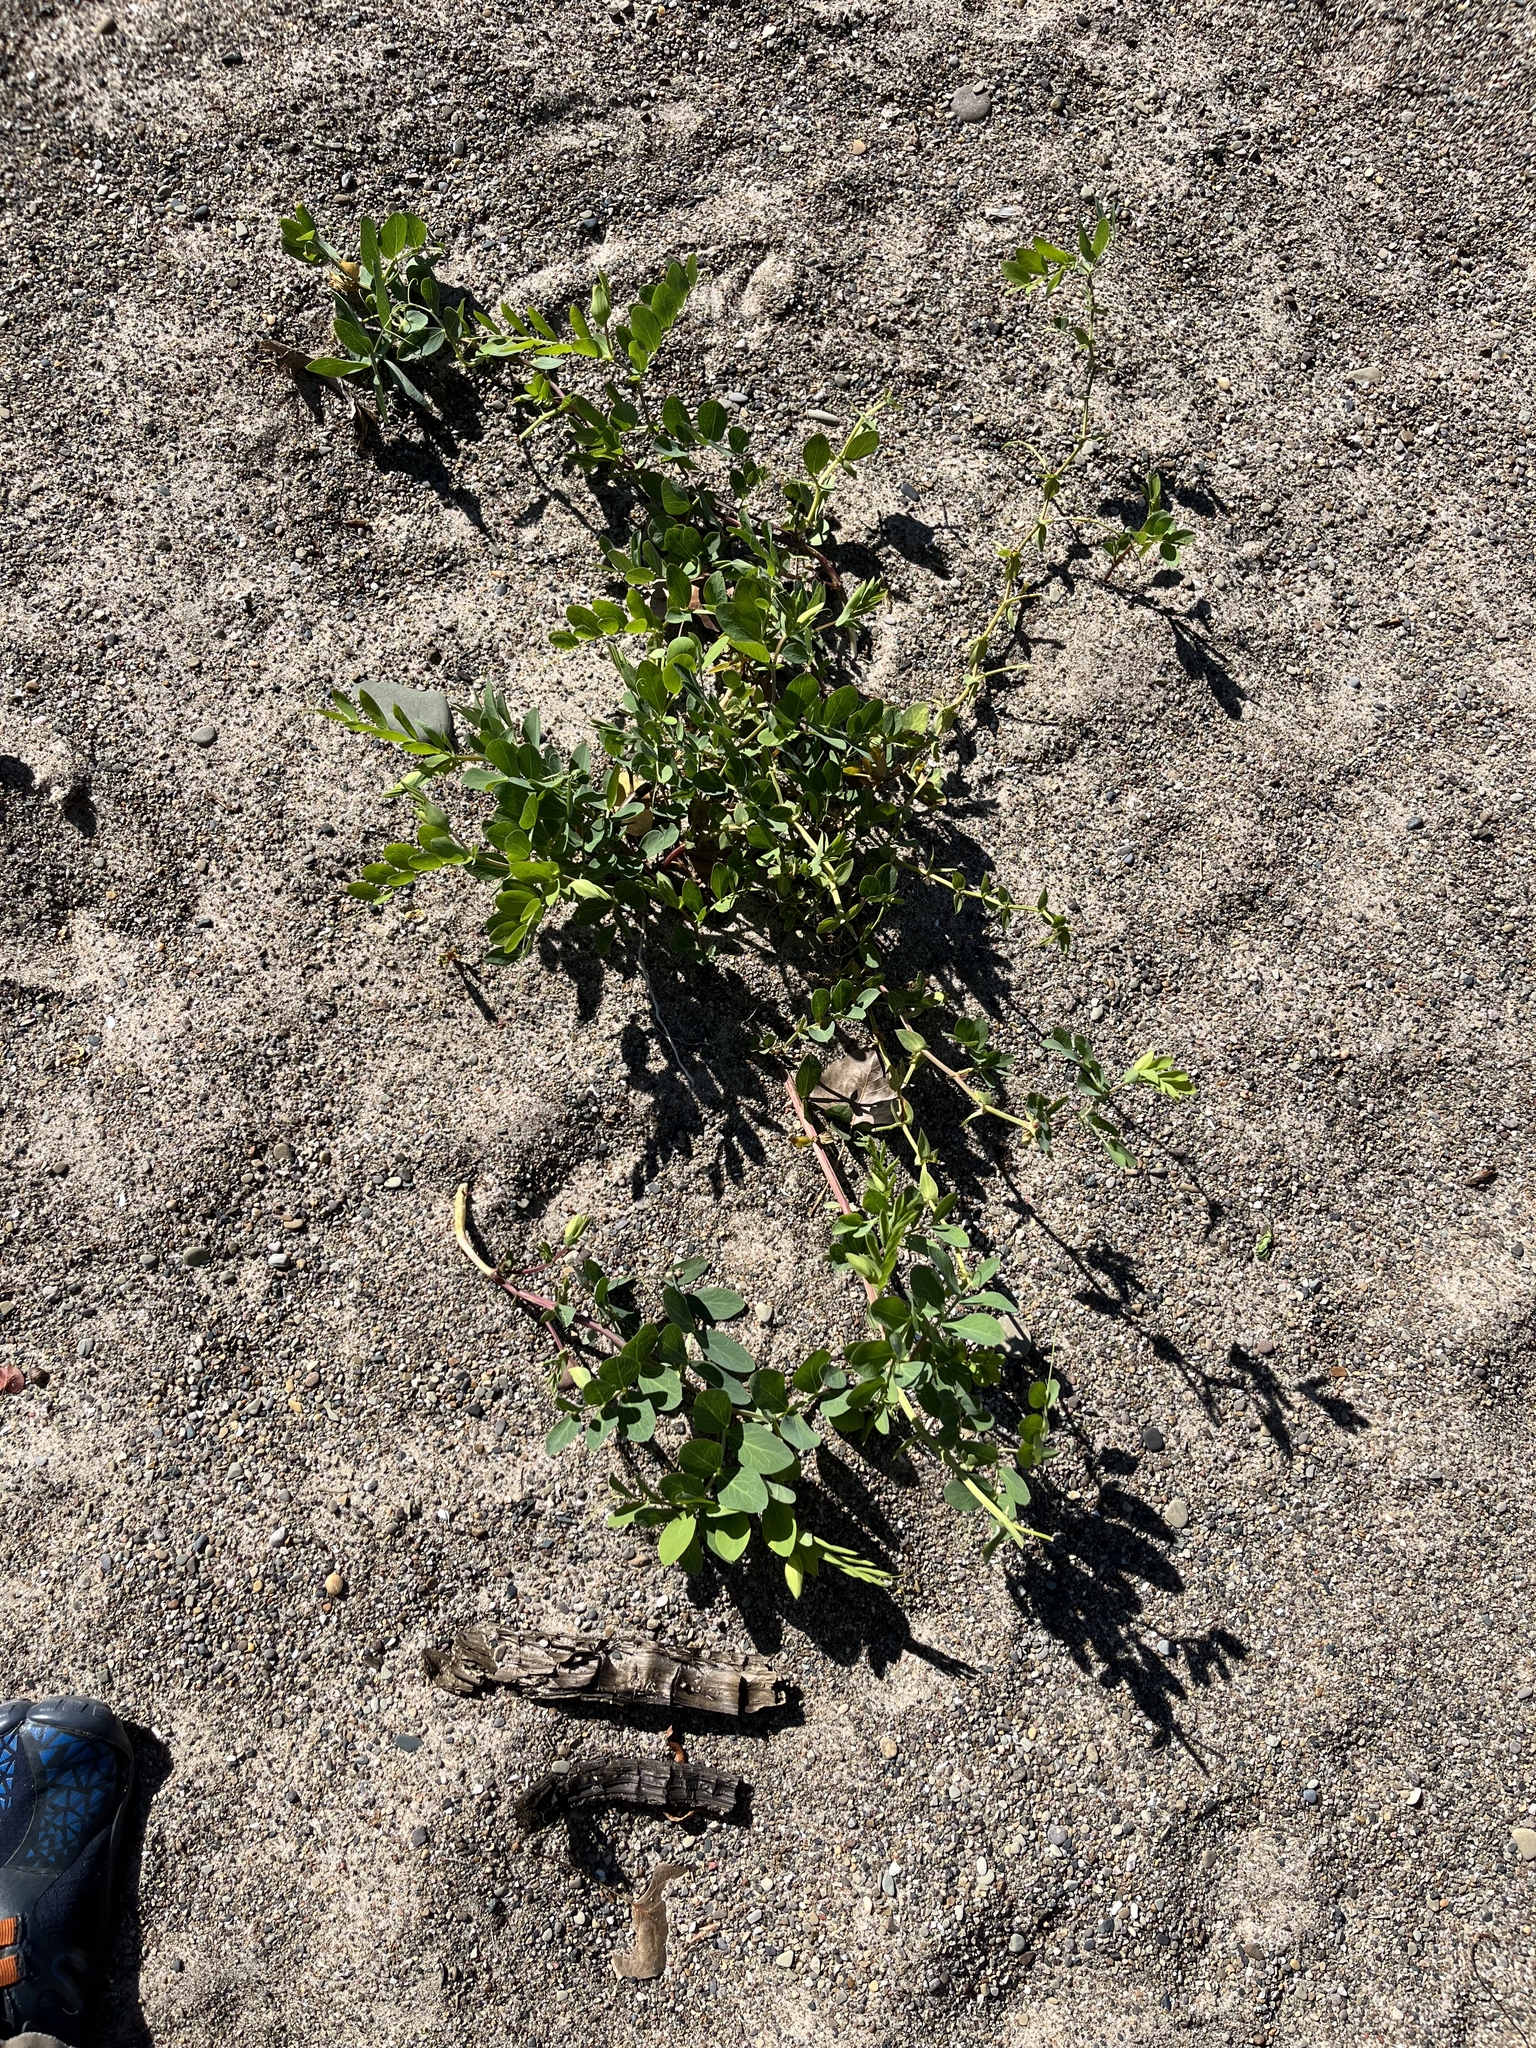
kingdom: Plantae
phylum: Tracheophyta
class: Magnoliopsida
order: Fabales
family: Fabaceae
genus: Lathyrus
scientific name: Lathyrus japonicus
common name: Sea pea
